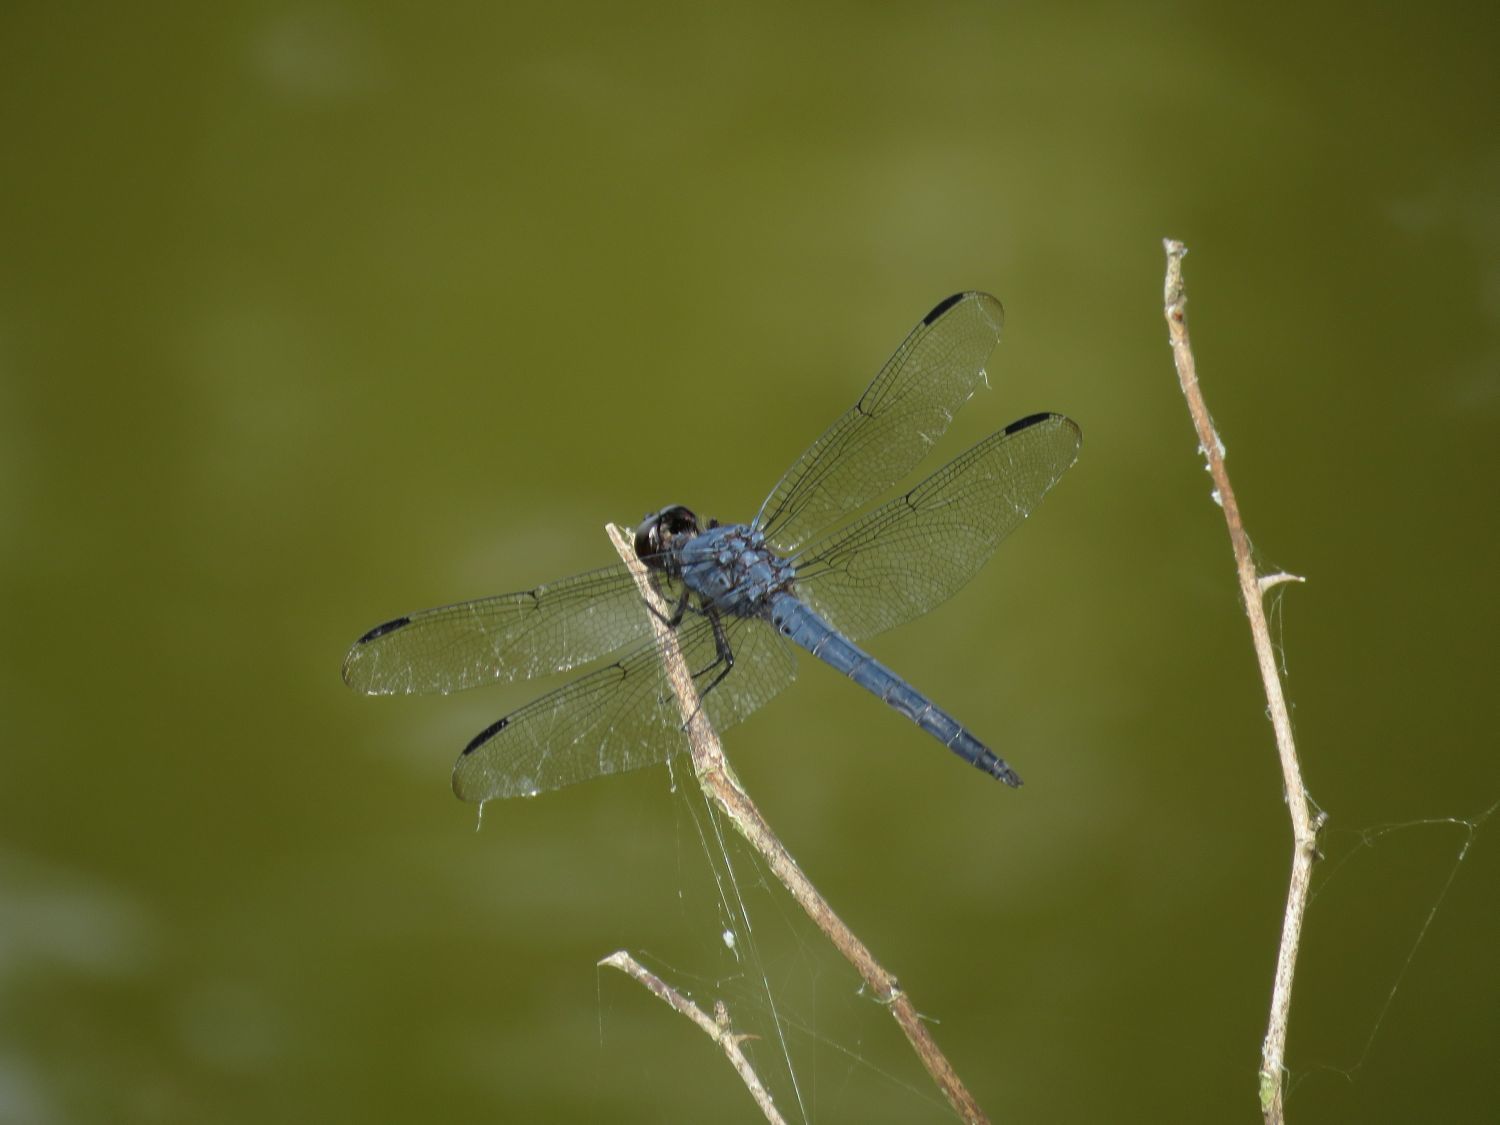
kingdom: Animalia
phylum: Arthropoda
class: Insecta
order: Odonata
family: Libellulidae
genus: Libellula
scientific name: Libellula incesta
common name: Slaty skimmer
